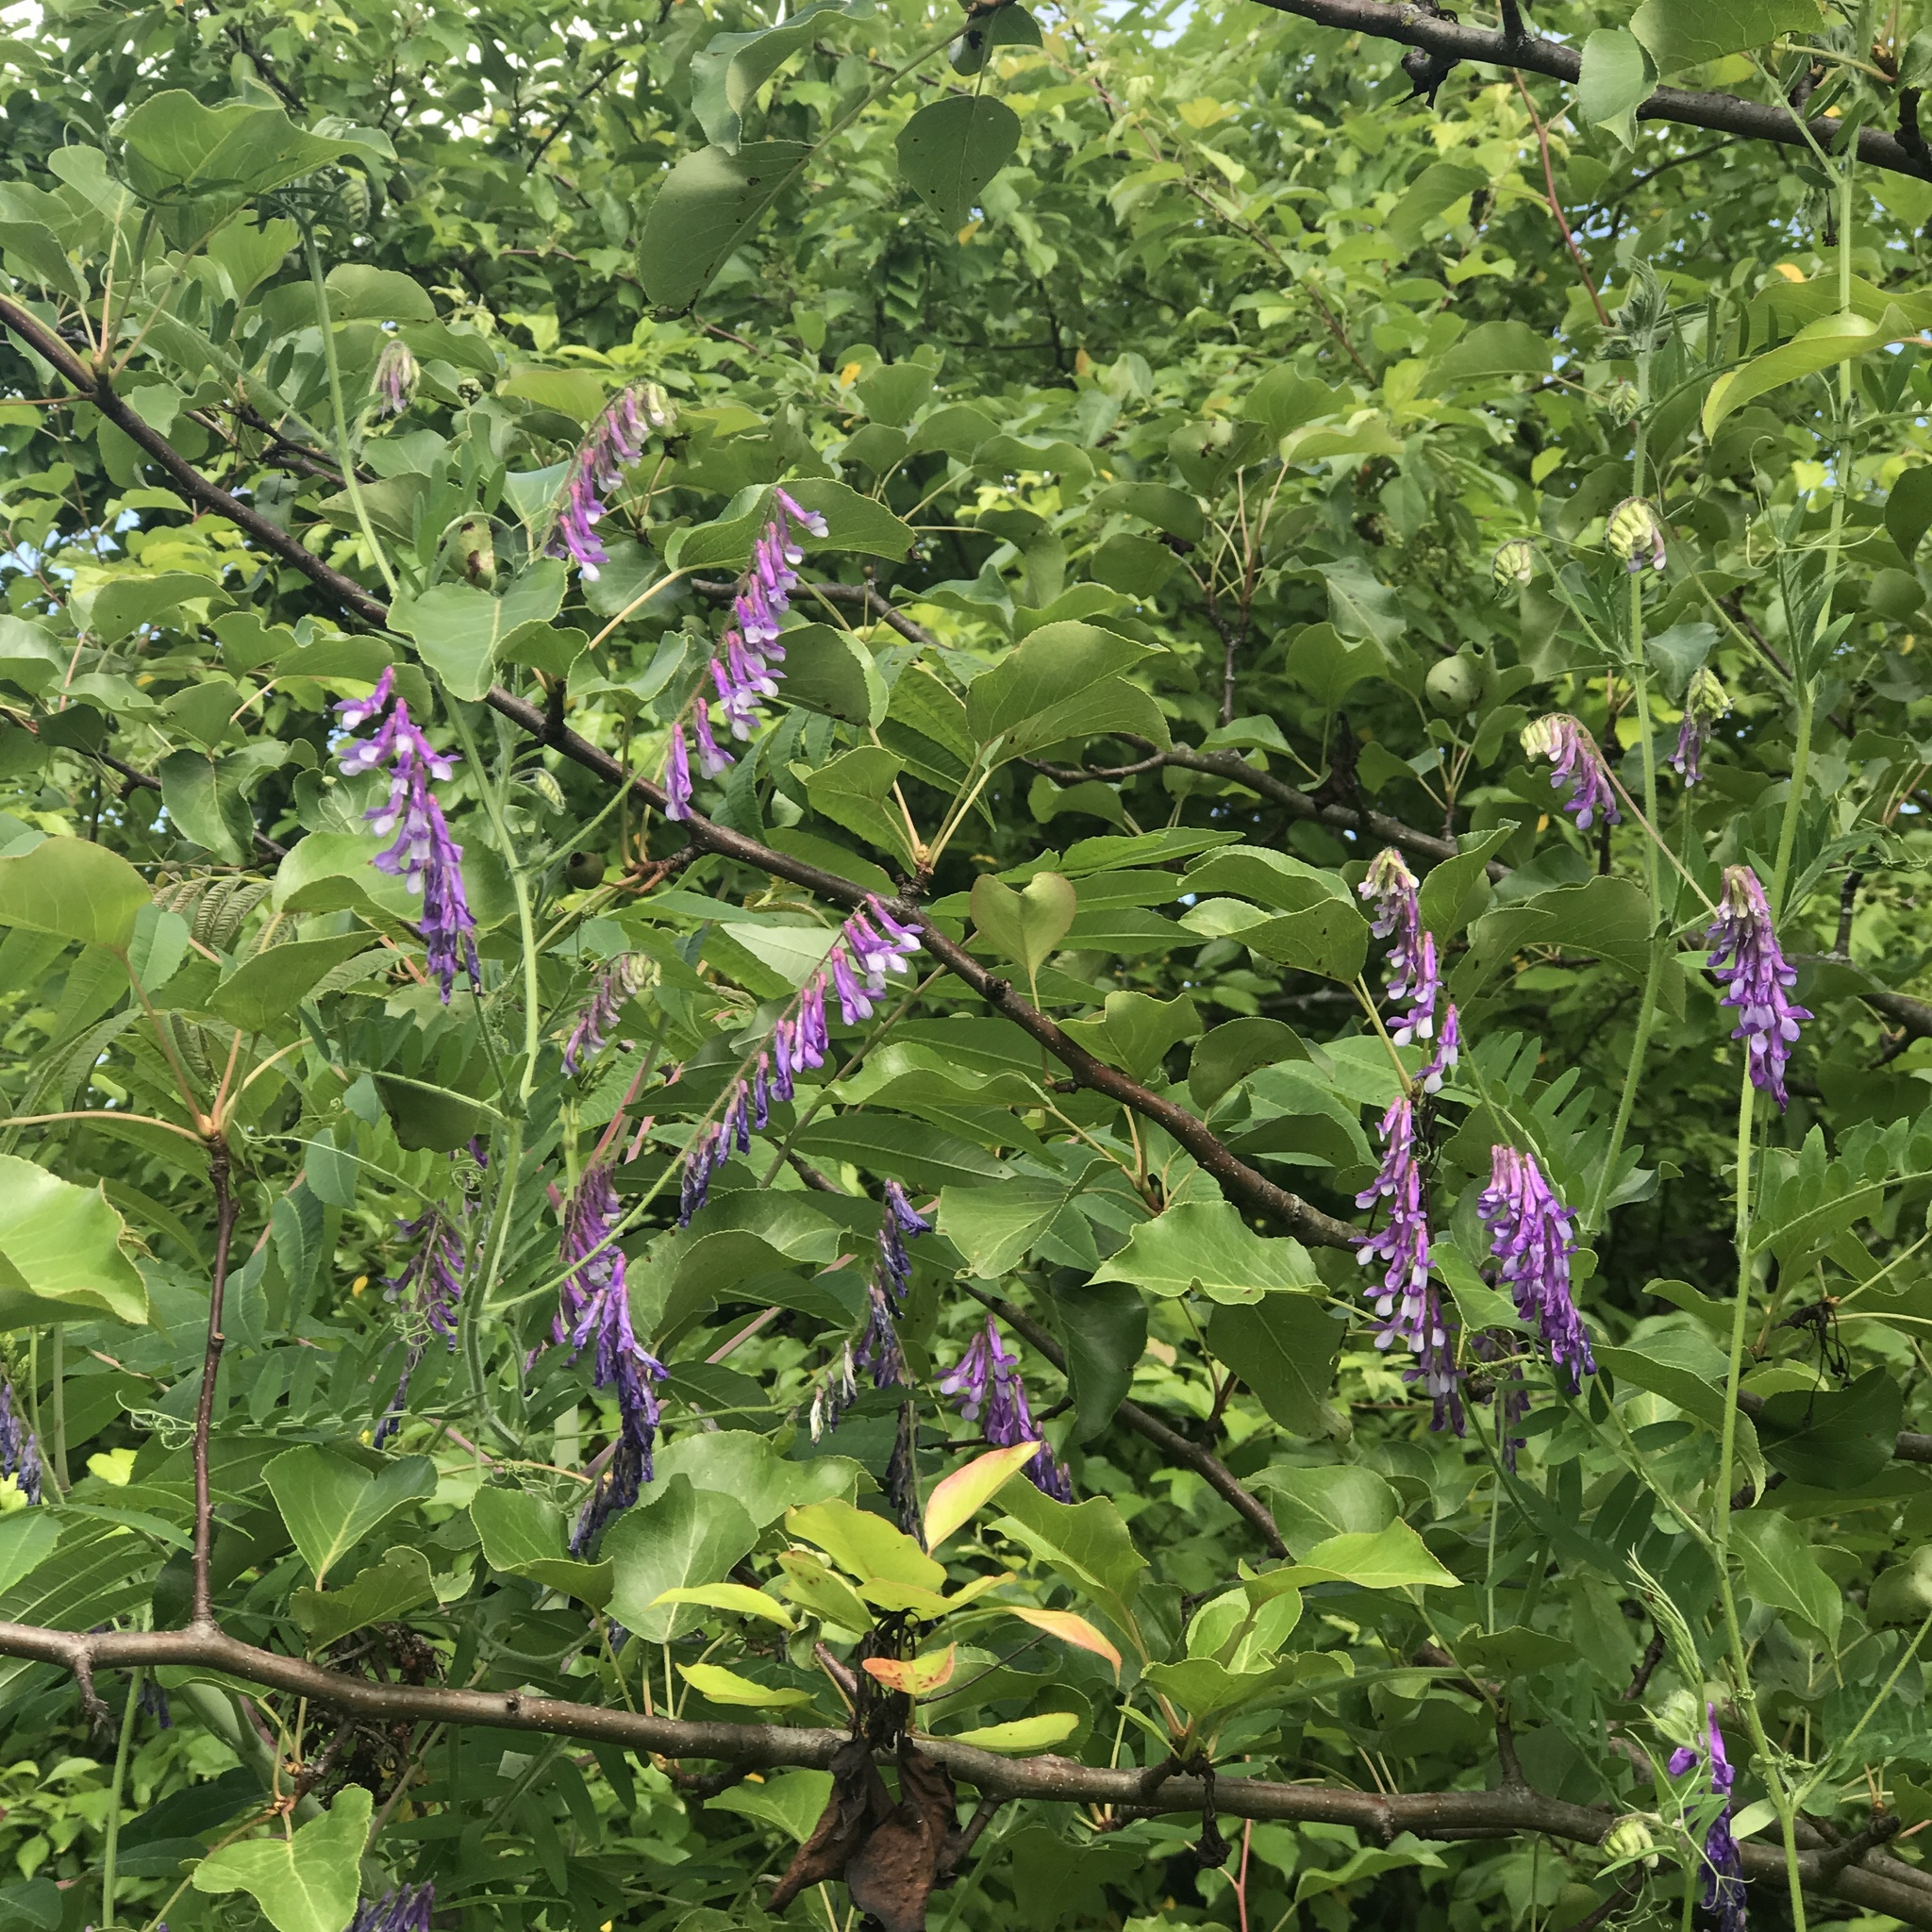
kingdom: Plantae
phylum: Tracheophyta
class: Magnoliopsida
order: Fabales
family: Fabaceae
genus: Vicia
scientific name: Vicia villosa
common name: Fodder vetch
